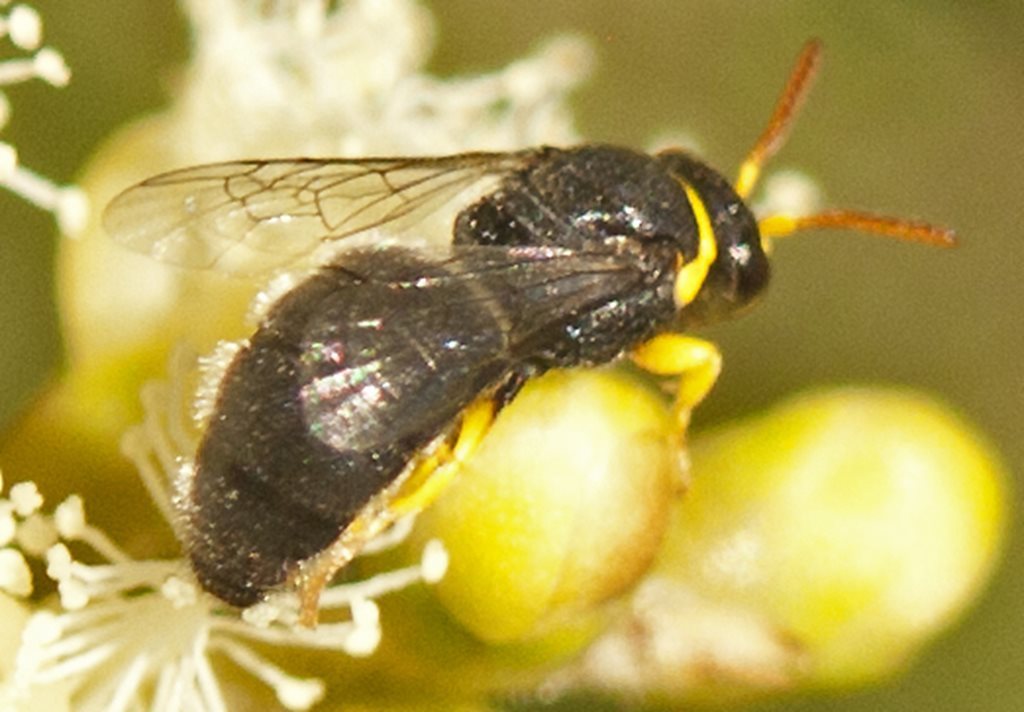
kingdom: Animalia
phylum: Arthropoda
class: Insecta
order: Hymenoptera
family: Colletidae
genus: Hylaeus
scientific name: Hylaeus euxanthus
